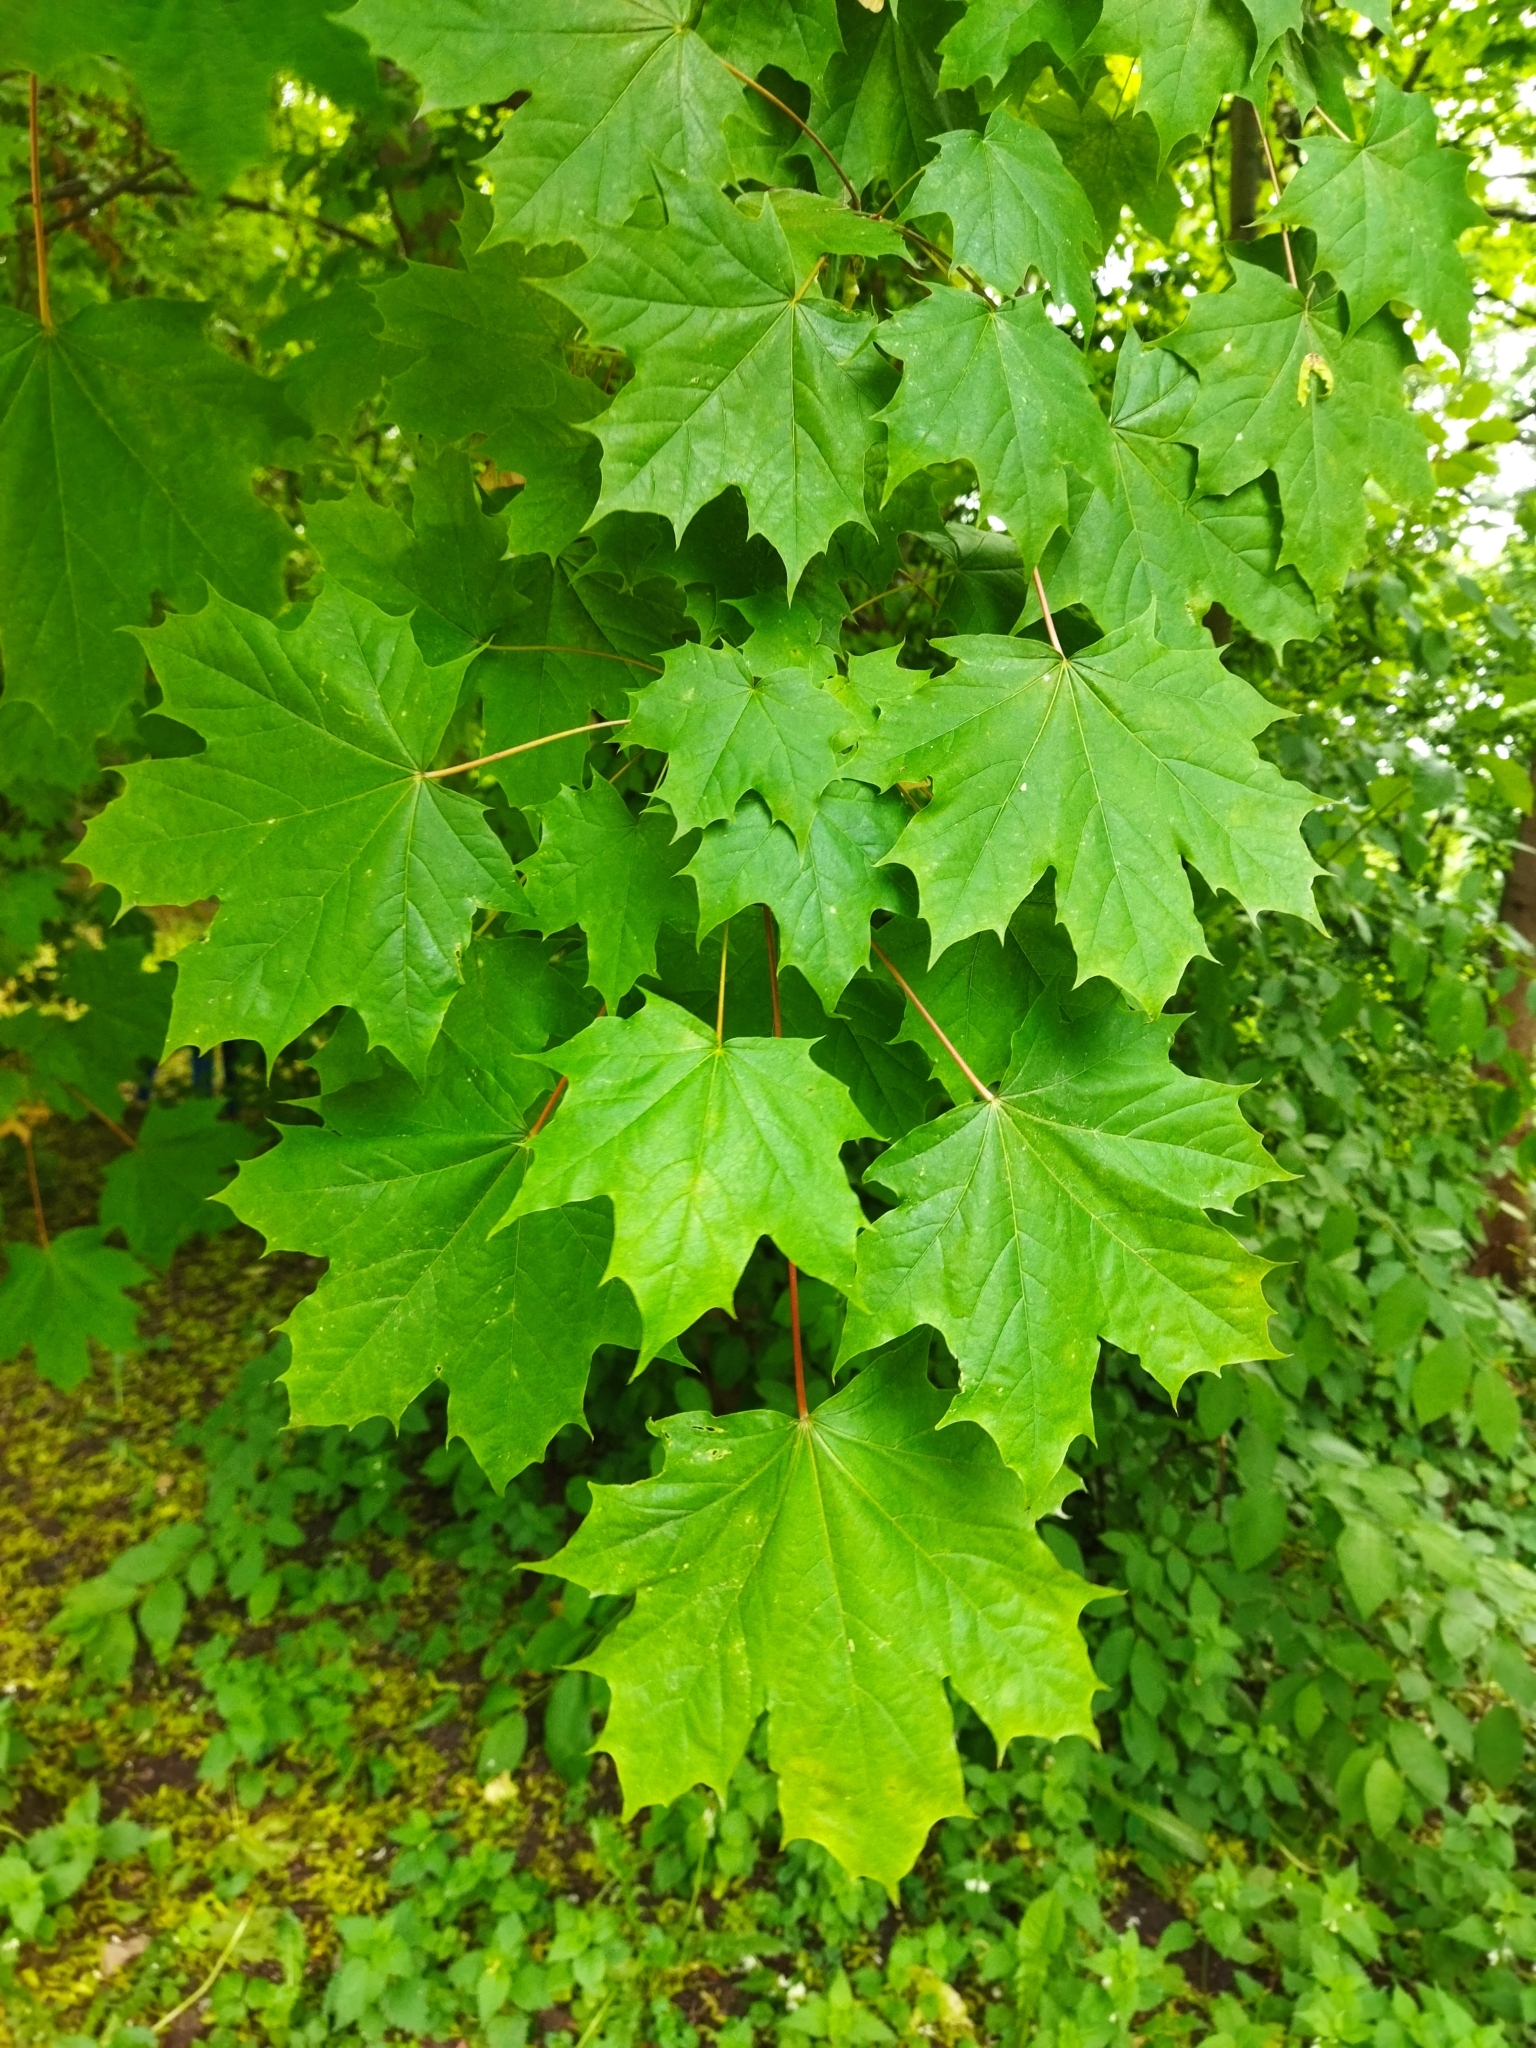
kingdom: Plantae
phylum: Tracheophyta
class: Magnoliopsida
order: Sapindales
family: Sapindaceae
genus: Acer
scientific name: Acer platanoides
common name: Norway maple
